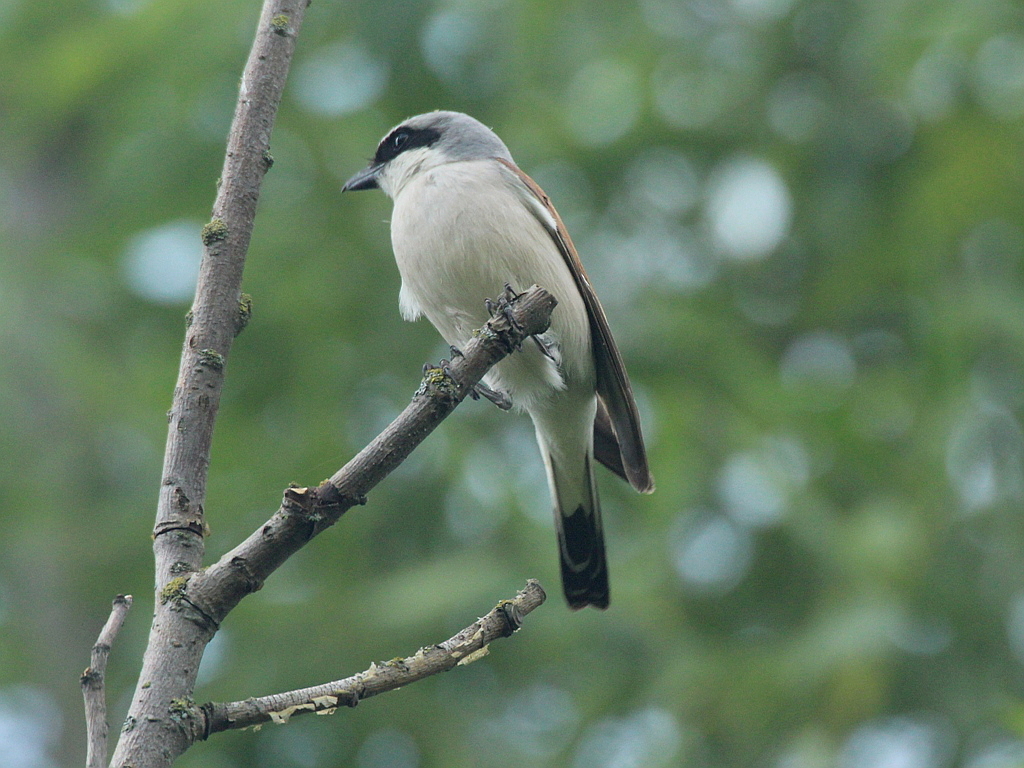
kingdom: Animalia
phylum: Chordata
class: Aves
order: Passeriformes
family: Laniidae
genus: Lanius
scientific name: Lanius collurio
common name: Red-backed shrike
